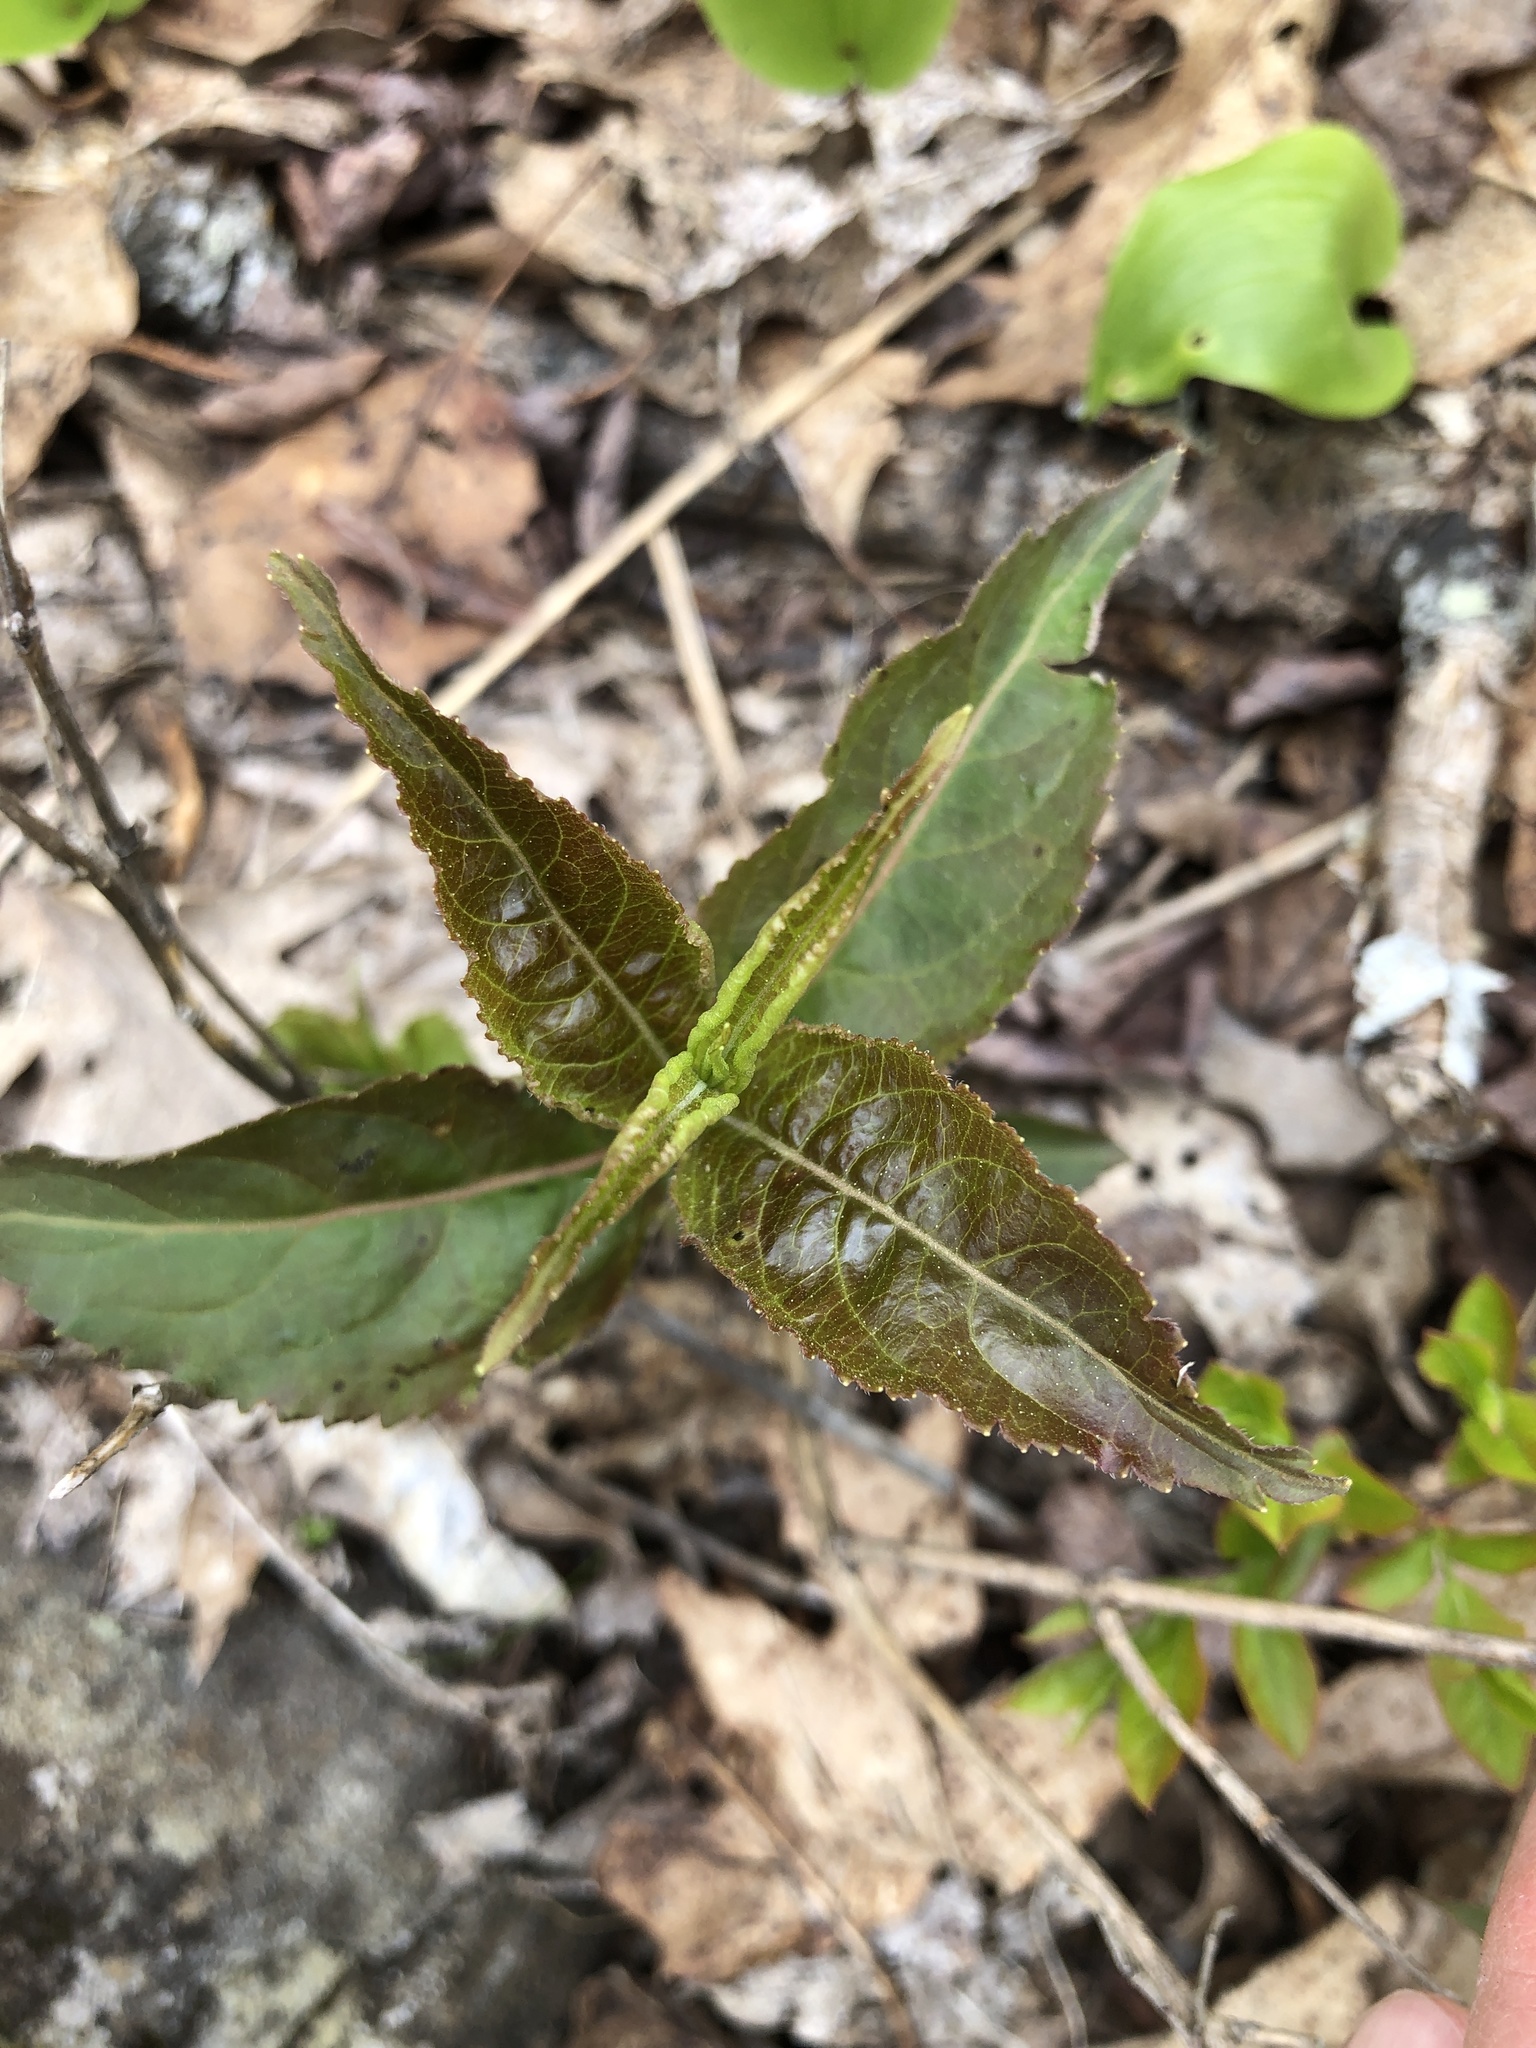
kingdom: Plantae
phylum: Tracheophyta
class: Magnoliopsida
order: Dipsacales
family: Caprifoliaceae
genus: Diervilla
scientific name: Diervilla lonicera
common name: Bush-honeysuckle
